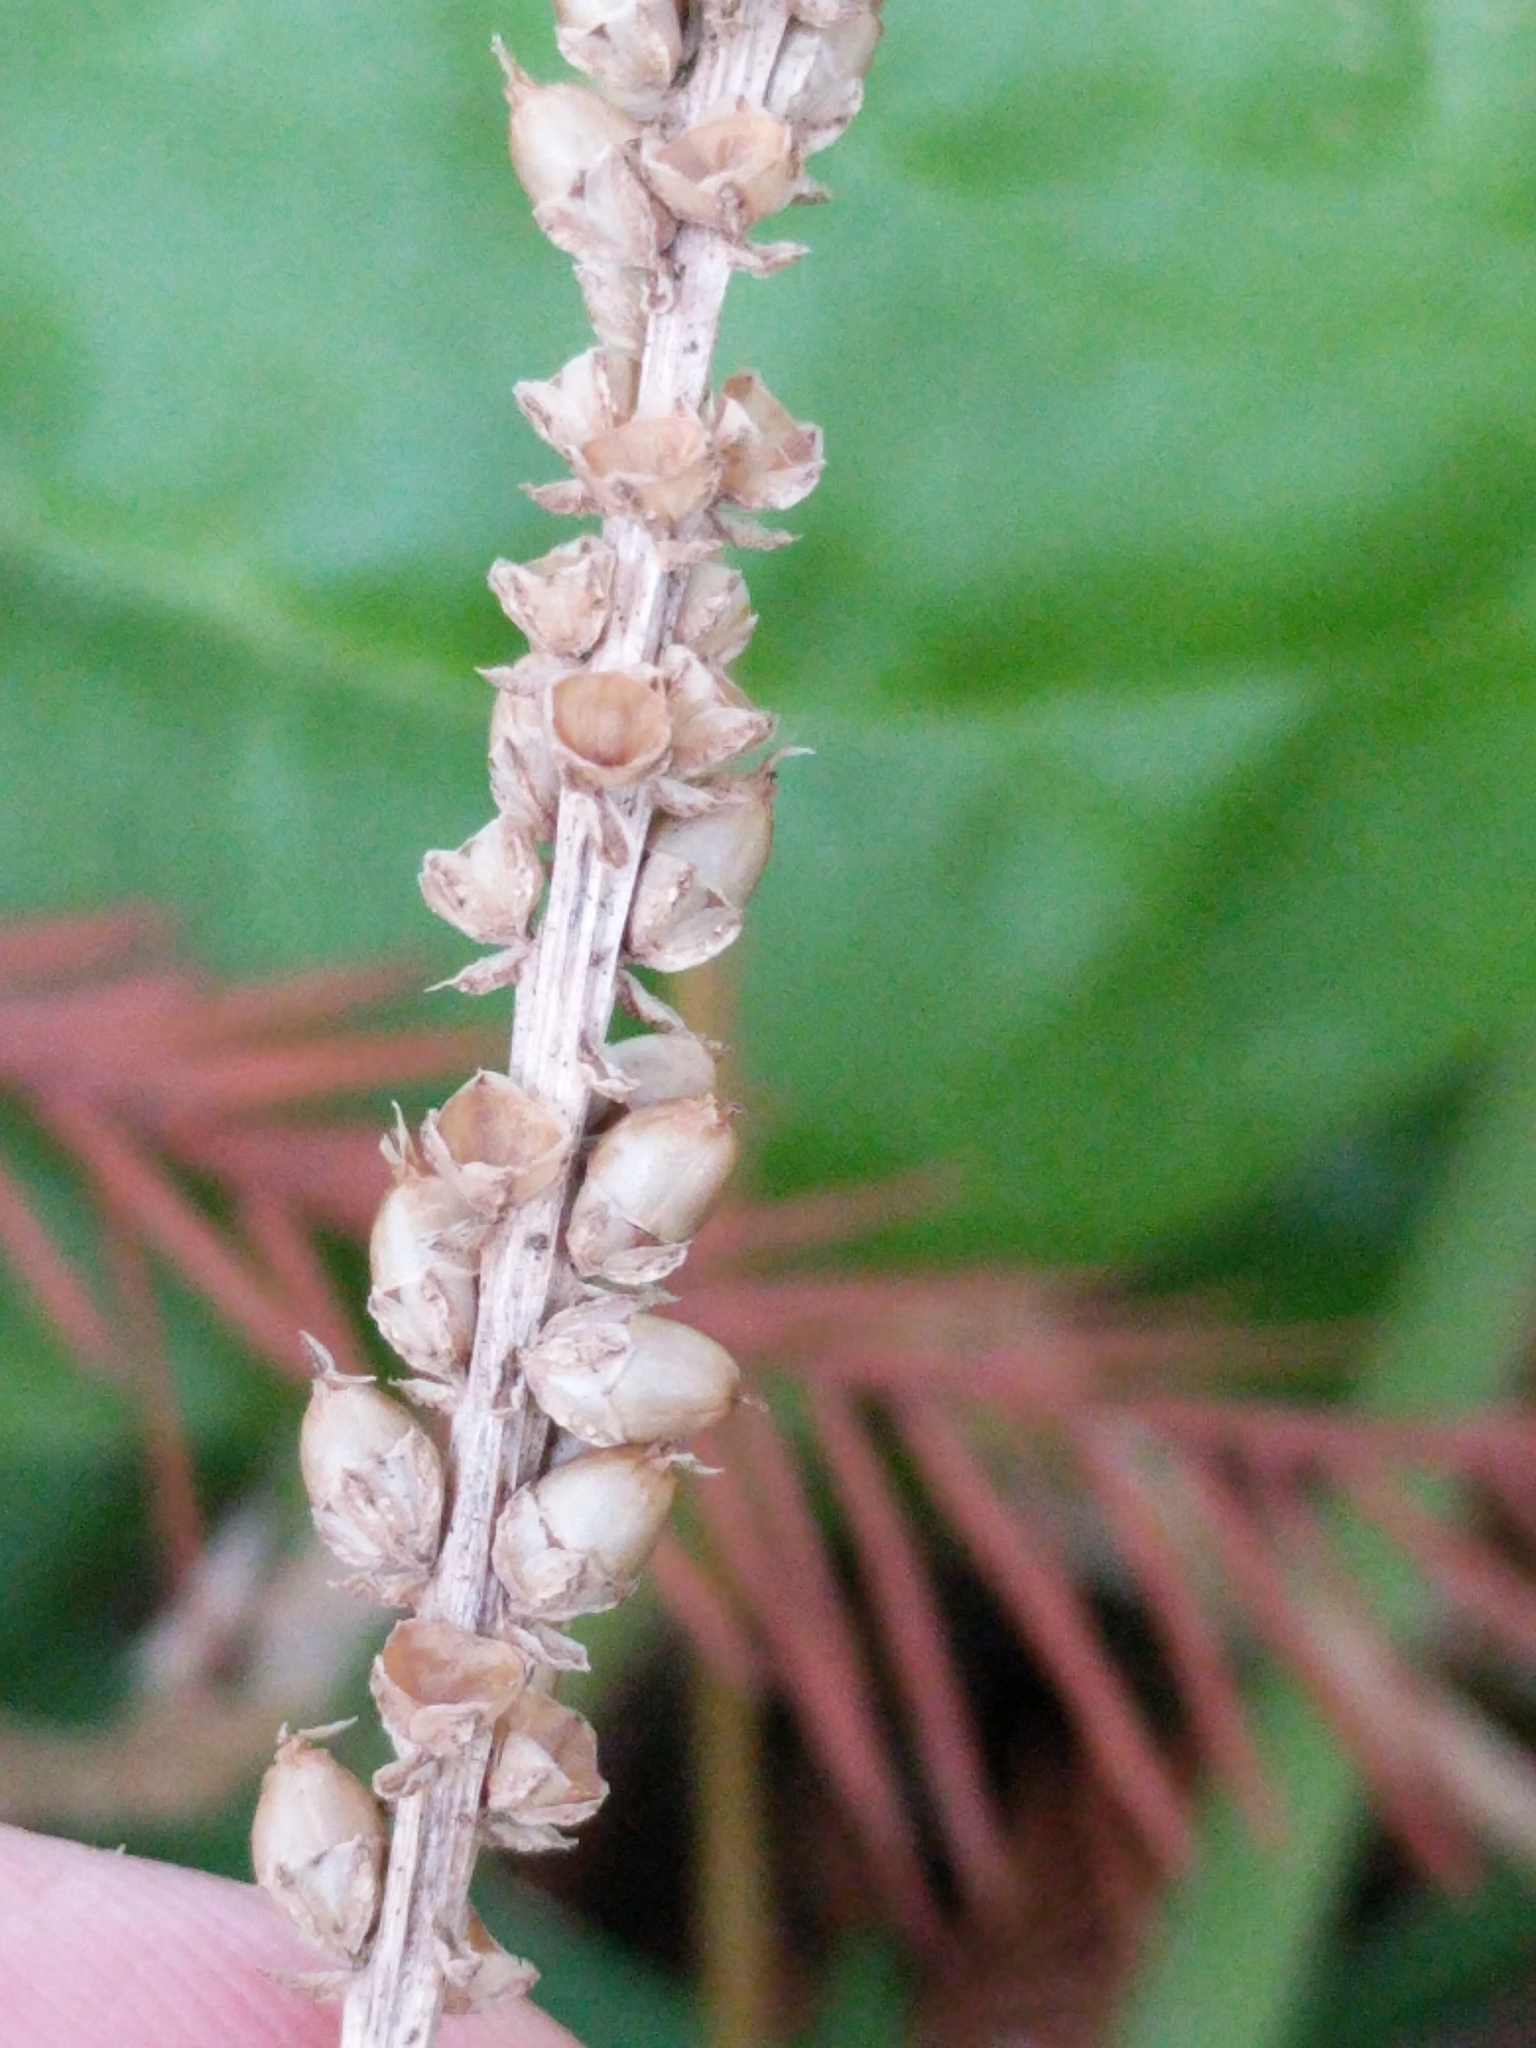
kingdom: Plantae
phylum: Tracheophyta
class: Magnoliopsida
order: Lamiales
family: Plantaginaceae
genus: Plantago
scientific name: Plantago major
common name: Common plantain
